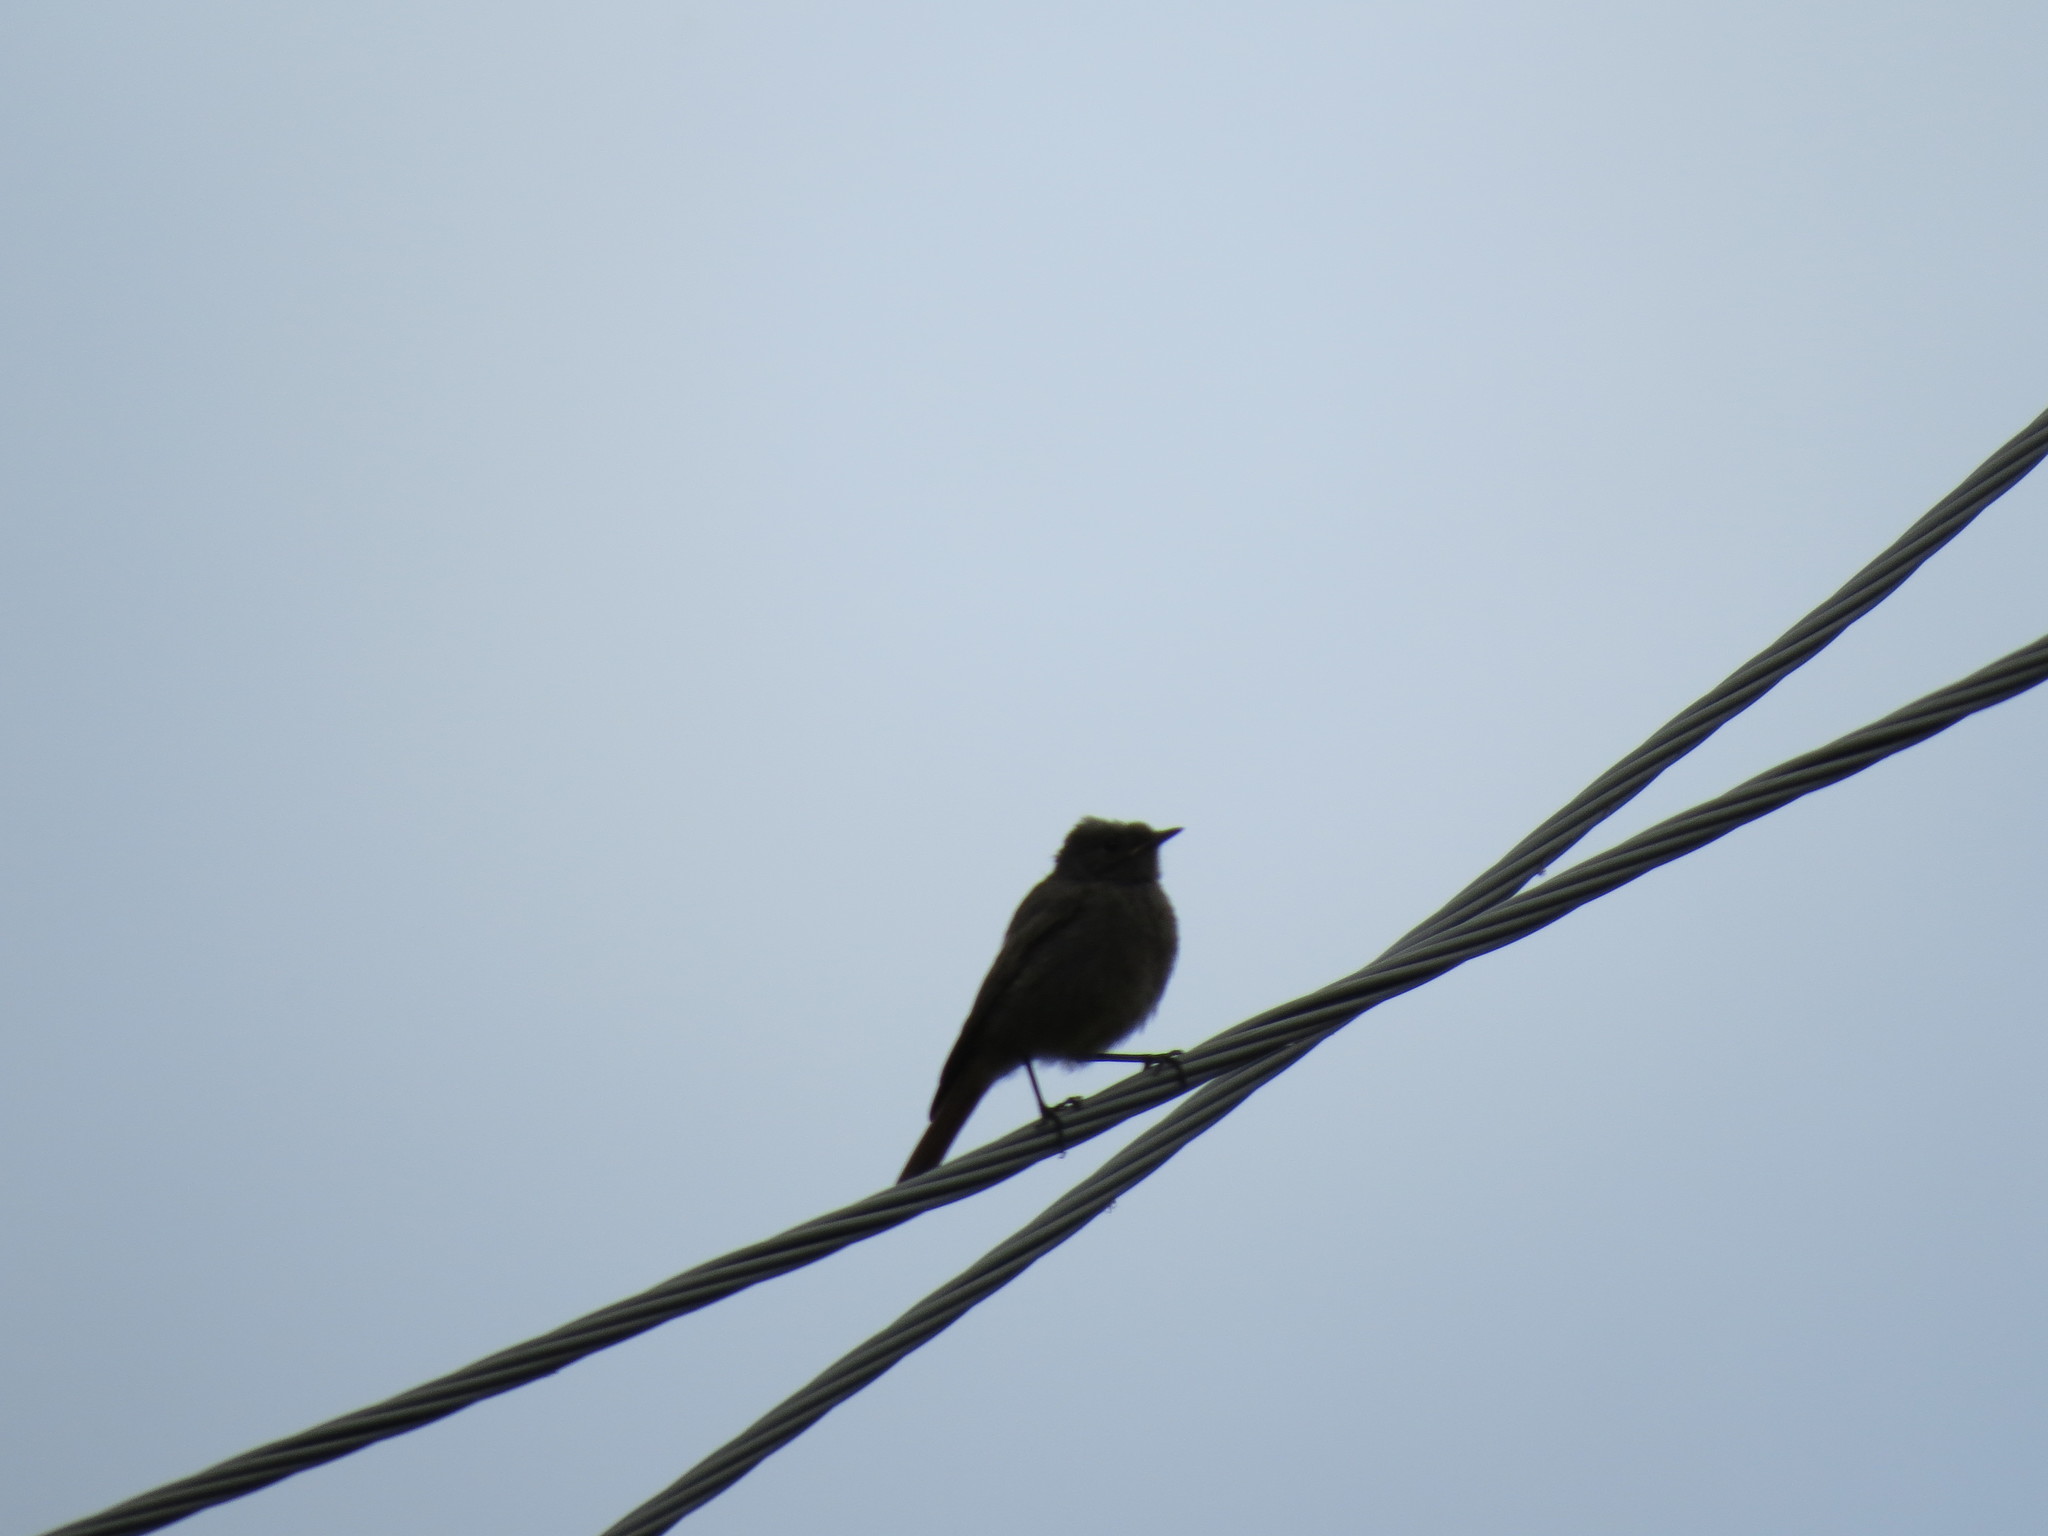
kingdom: Animalia
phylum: Chordata
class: Aves
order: Passeriformes
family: Muscicapidae
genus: Phoenicurus
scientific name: Phoenicurus ochruros
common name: Black redstart
